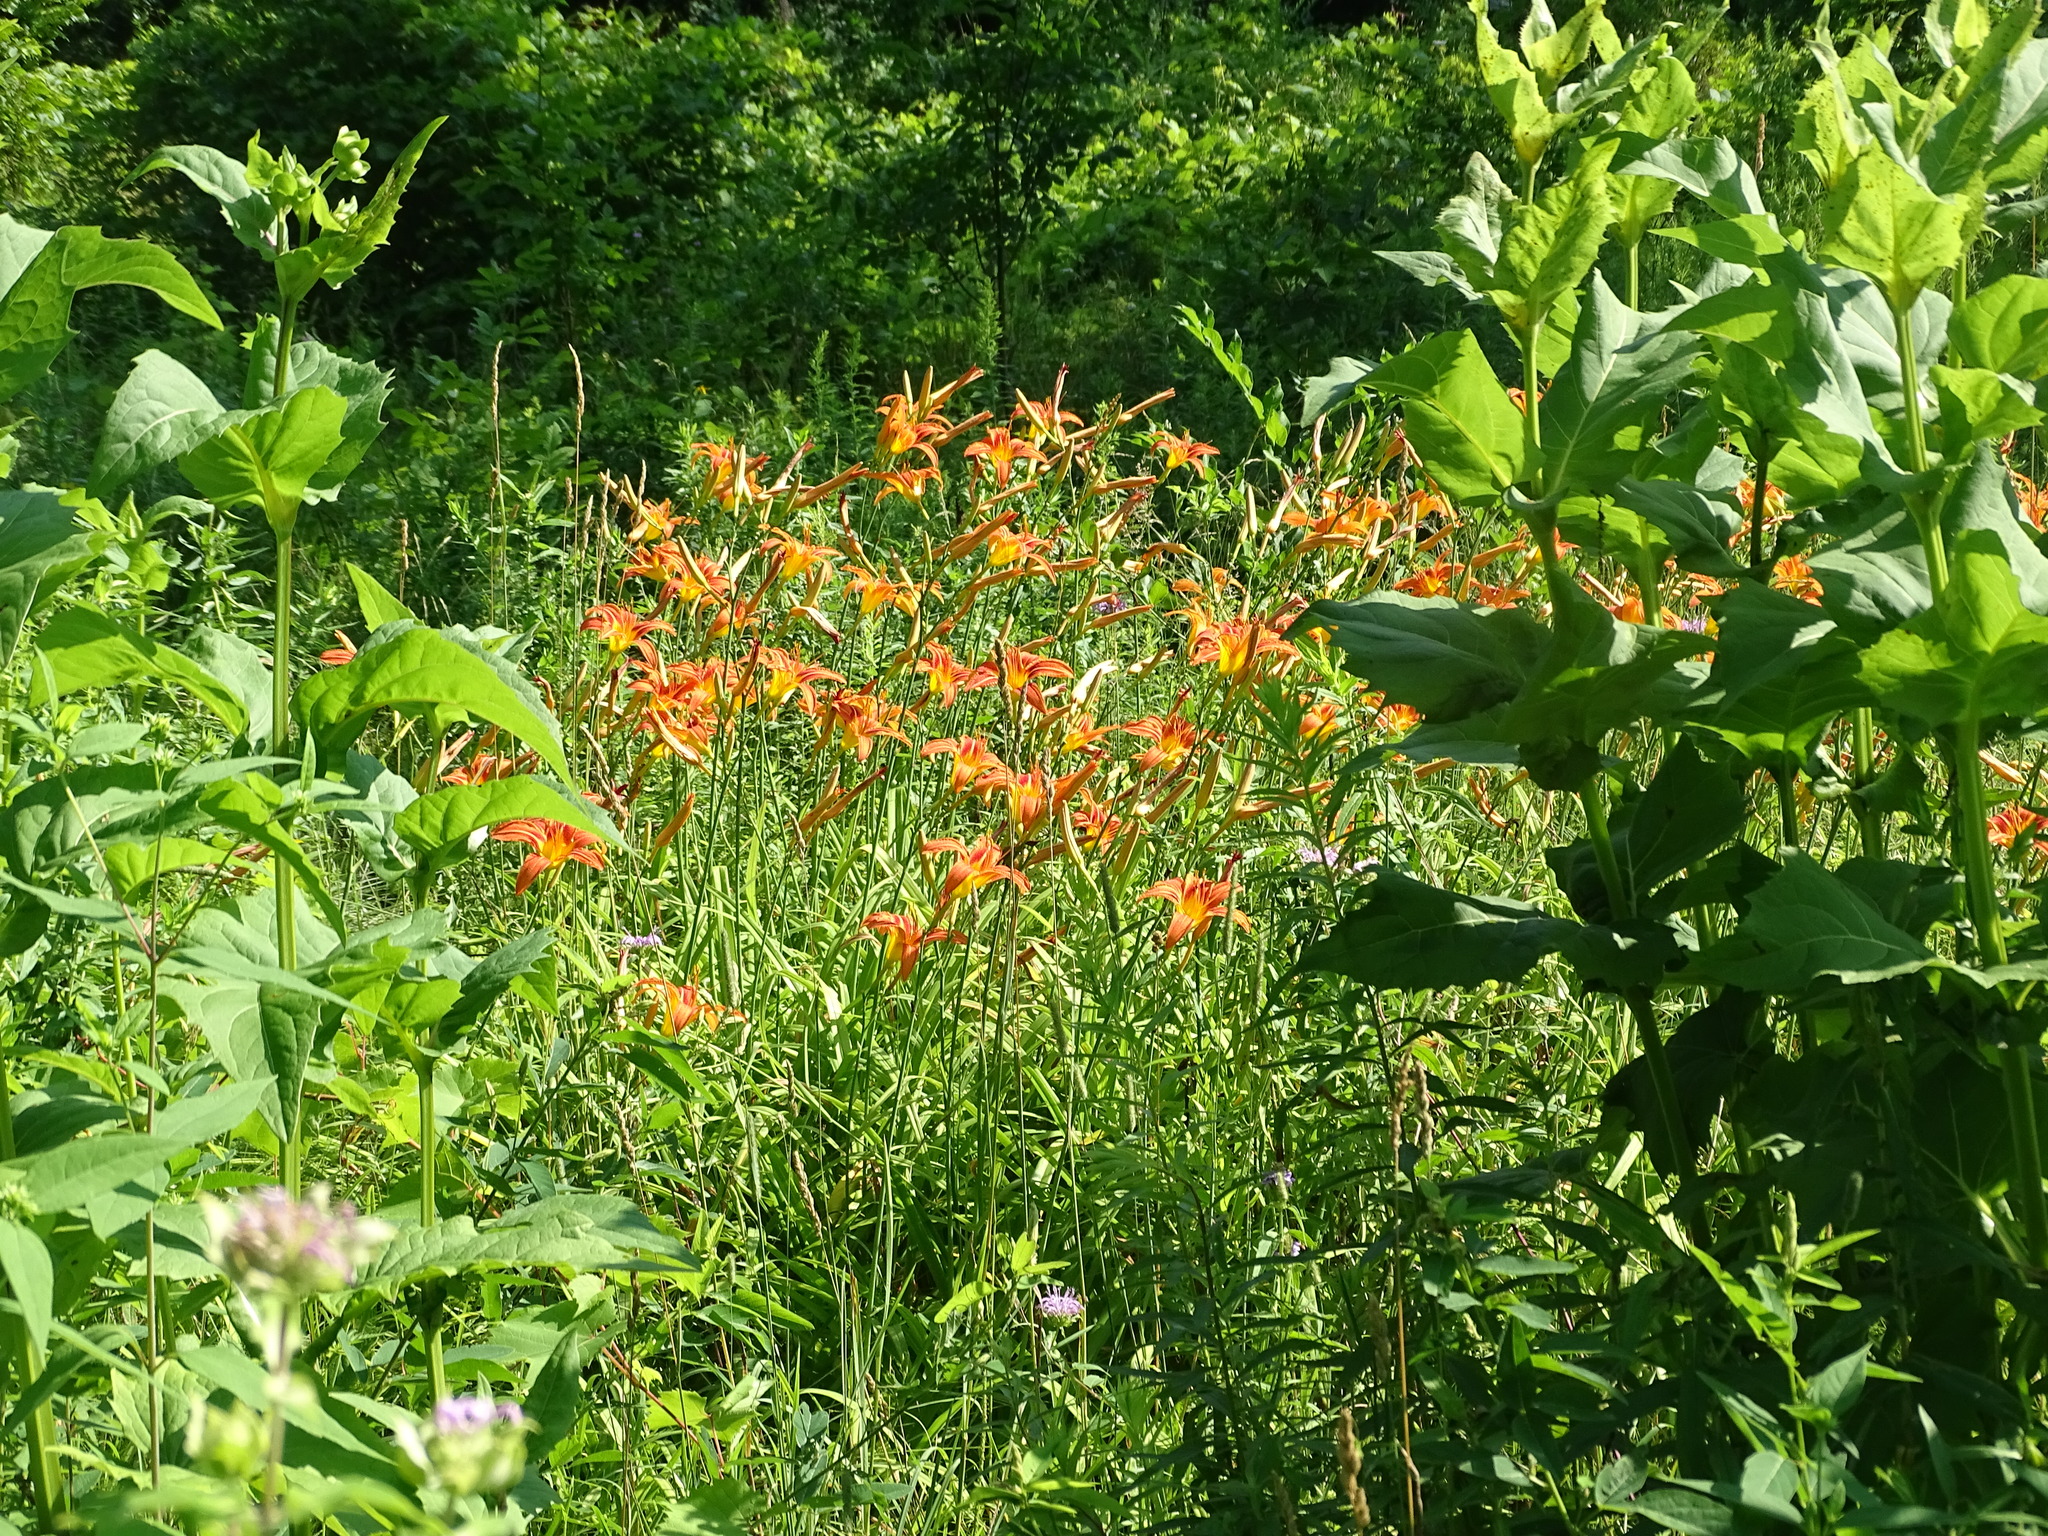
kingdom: Plantae
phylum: Tracheophyta
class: Liliopsida
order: Asparagales
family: Asphodelaceae
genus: Hemerocallis
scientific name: Hemerocallis fulva
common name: Orange day-lily
